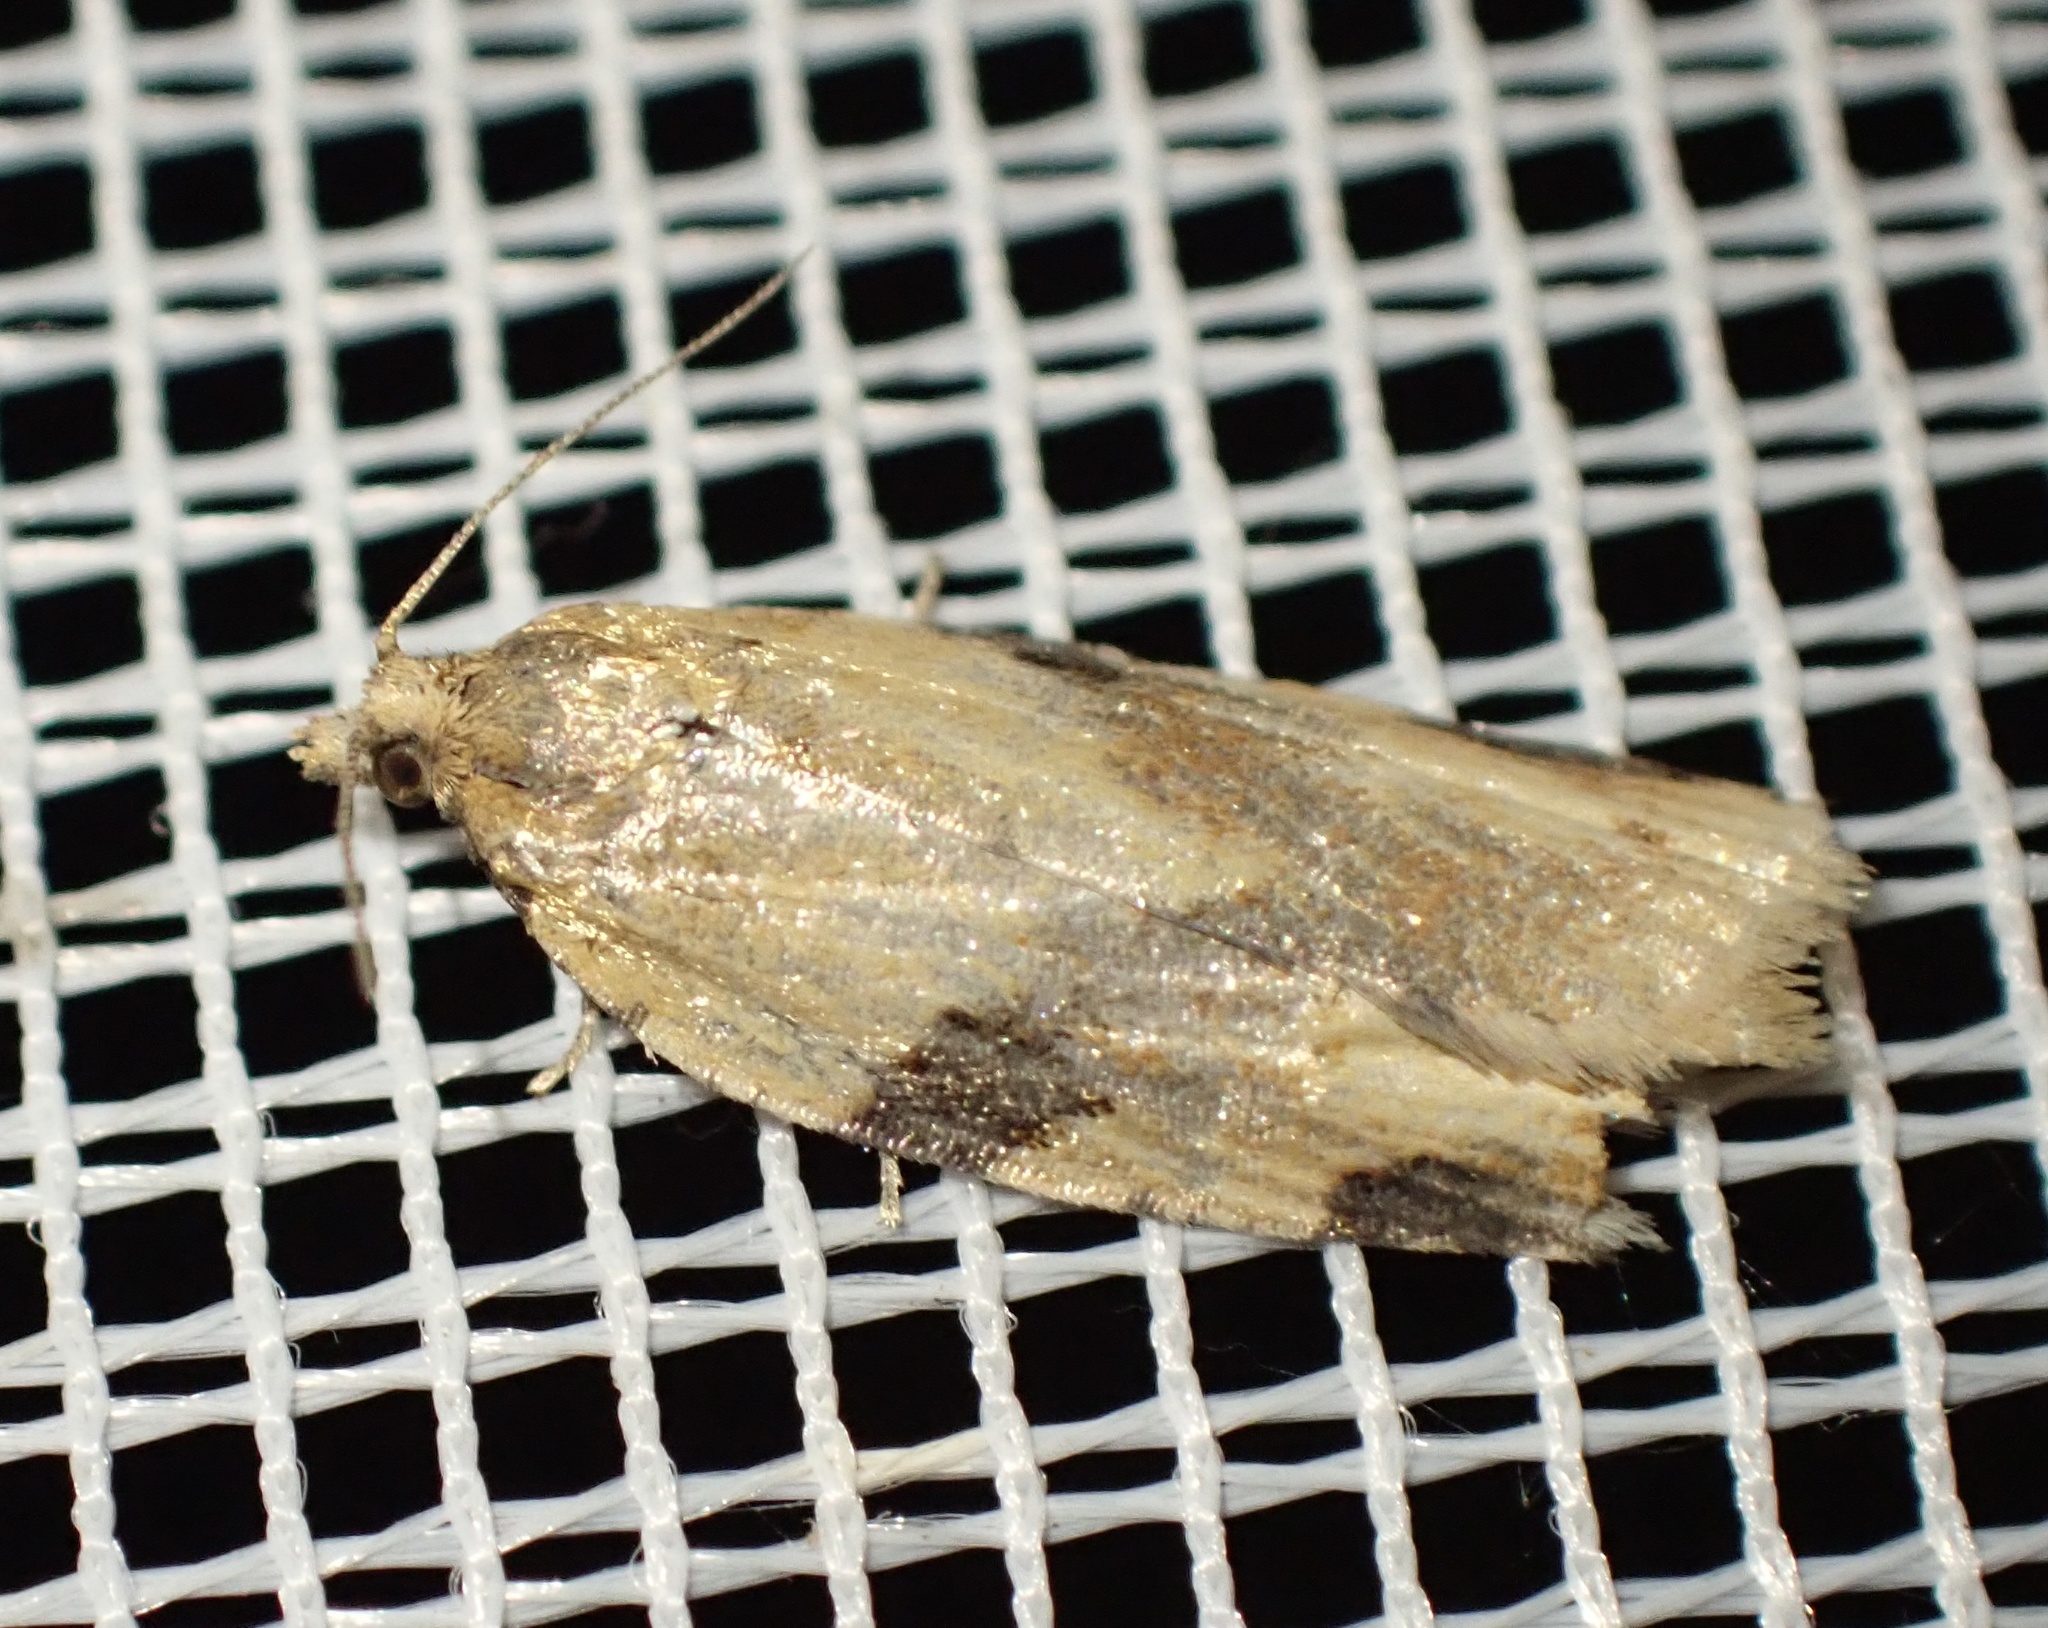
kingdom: Animalia
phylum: Arthropoda
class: Insecta
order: Lepidoptera
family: Tortricidae
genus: Clepsis
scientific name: Clepsis spectrana
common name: Cyclamen tortrix
